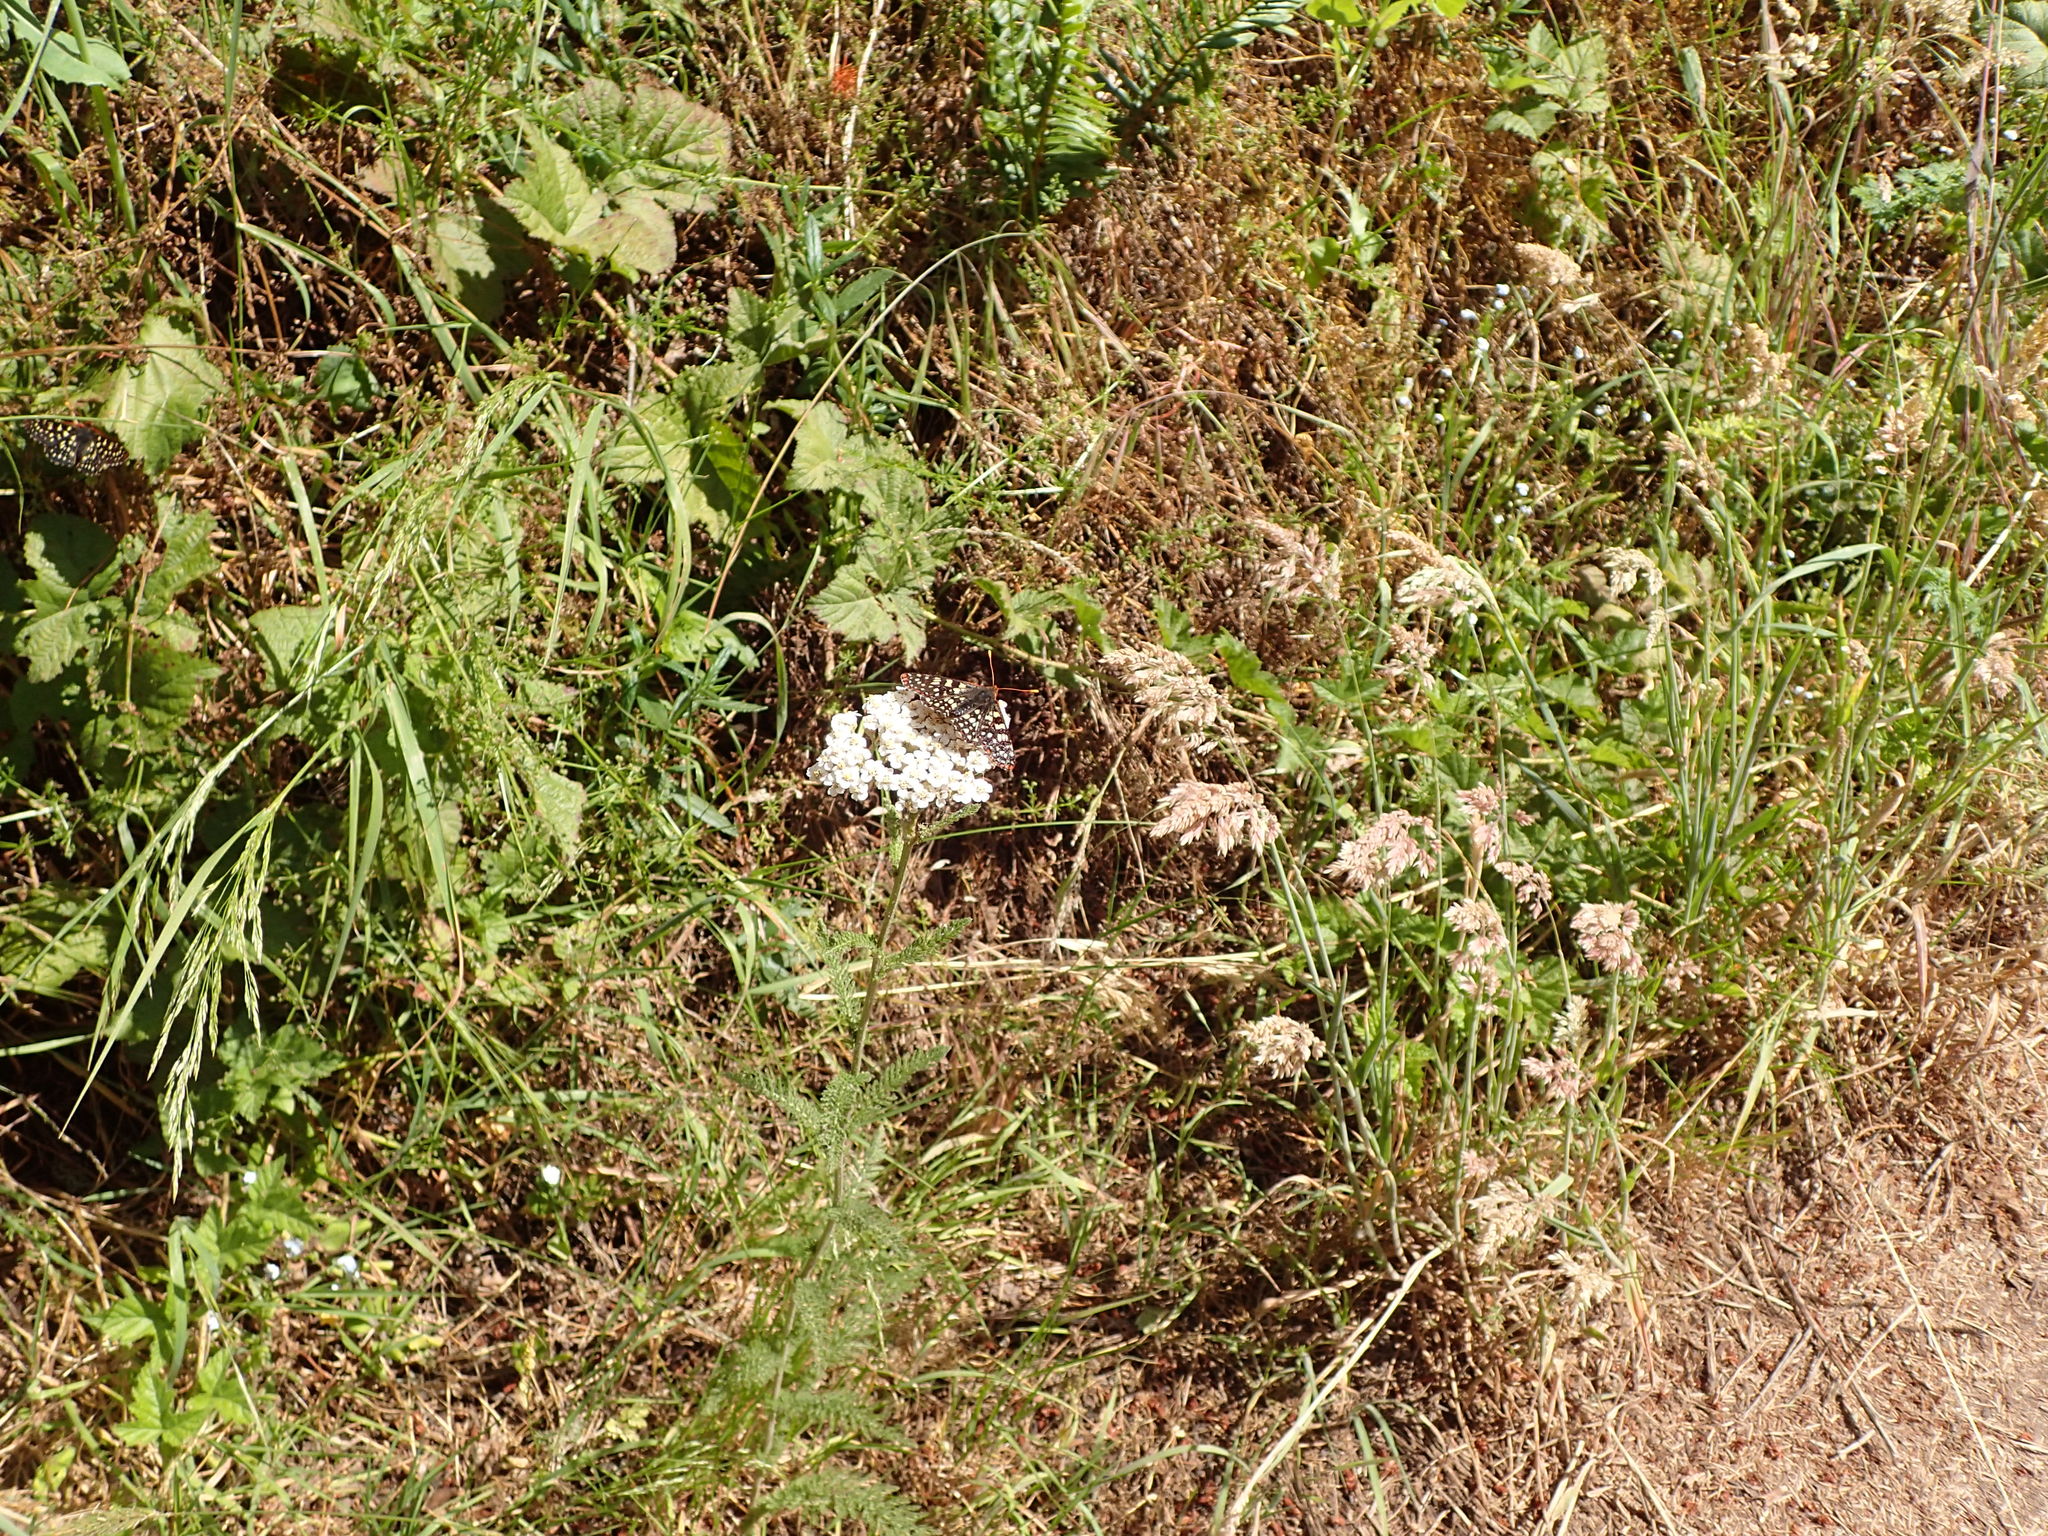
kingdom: Animalia
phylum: Arthropoda
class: Insecta
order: Lepidoptera
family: Nymphalidae
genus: Occidryas
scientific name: Occidryas chalcedona
